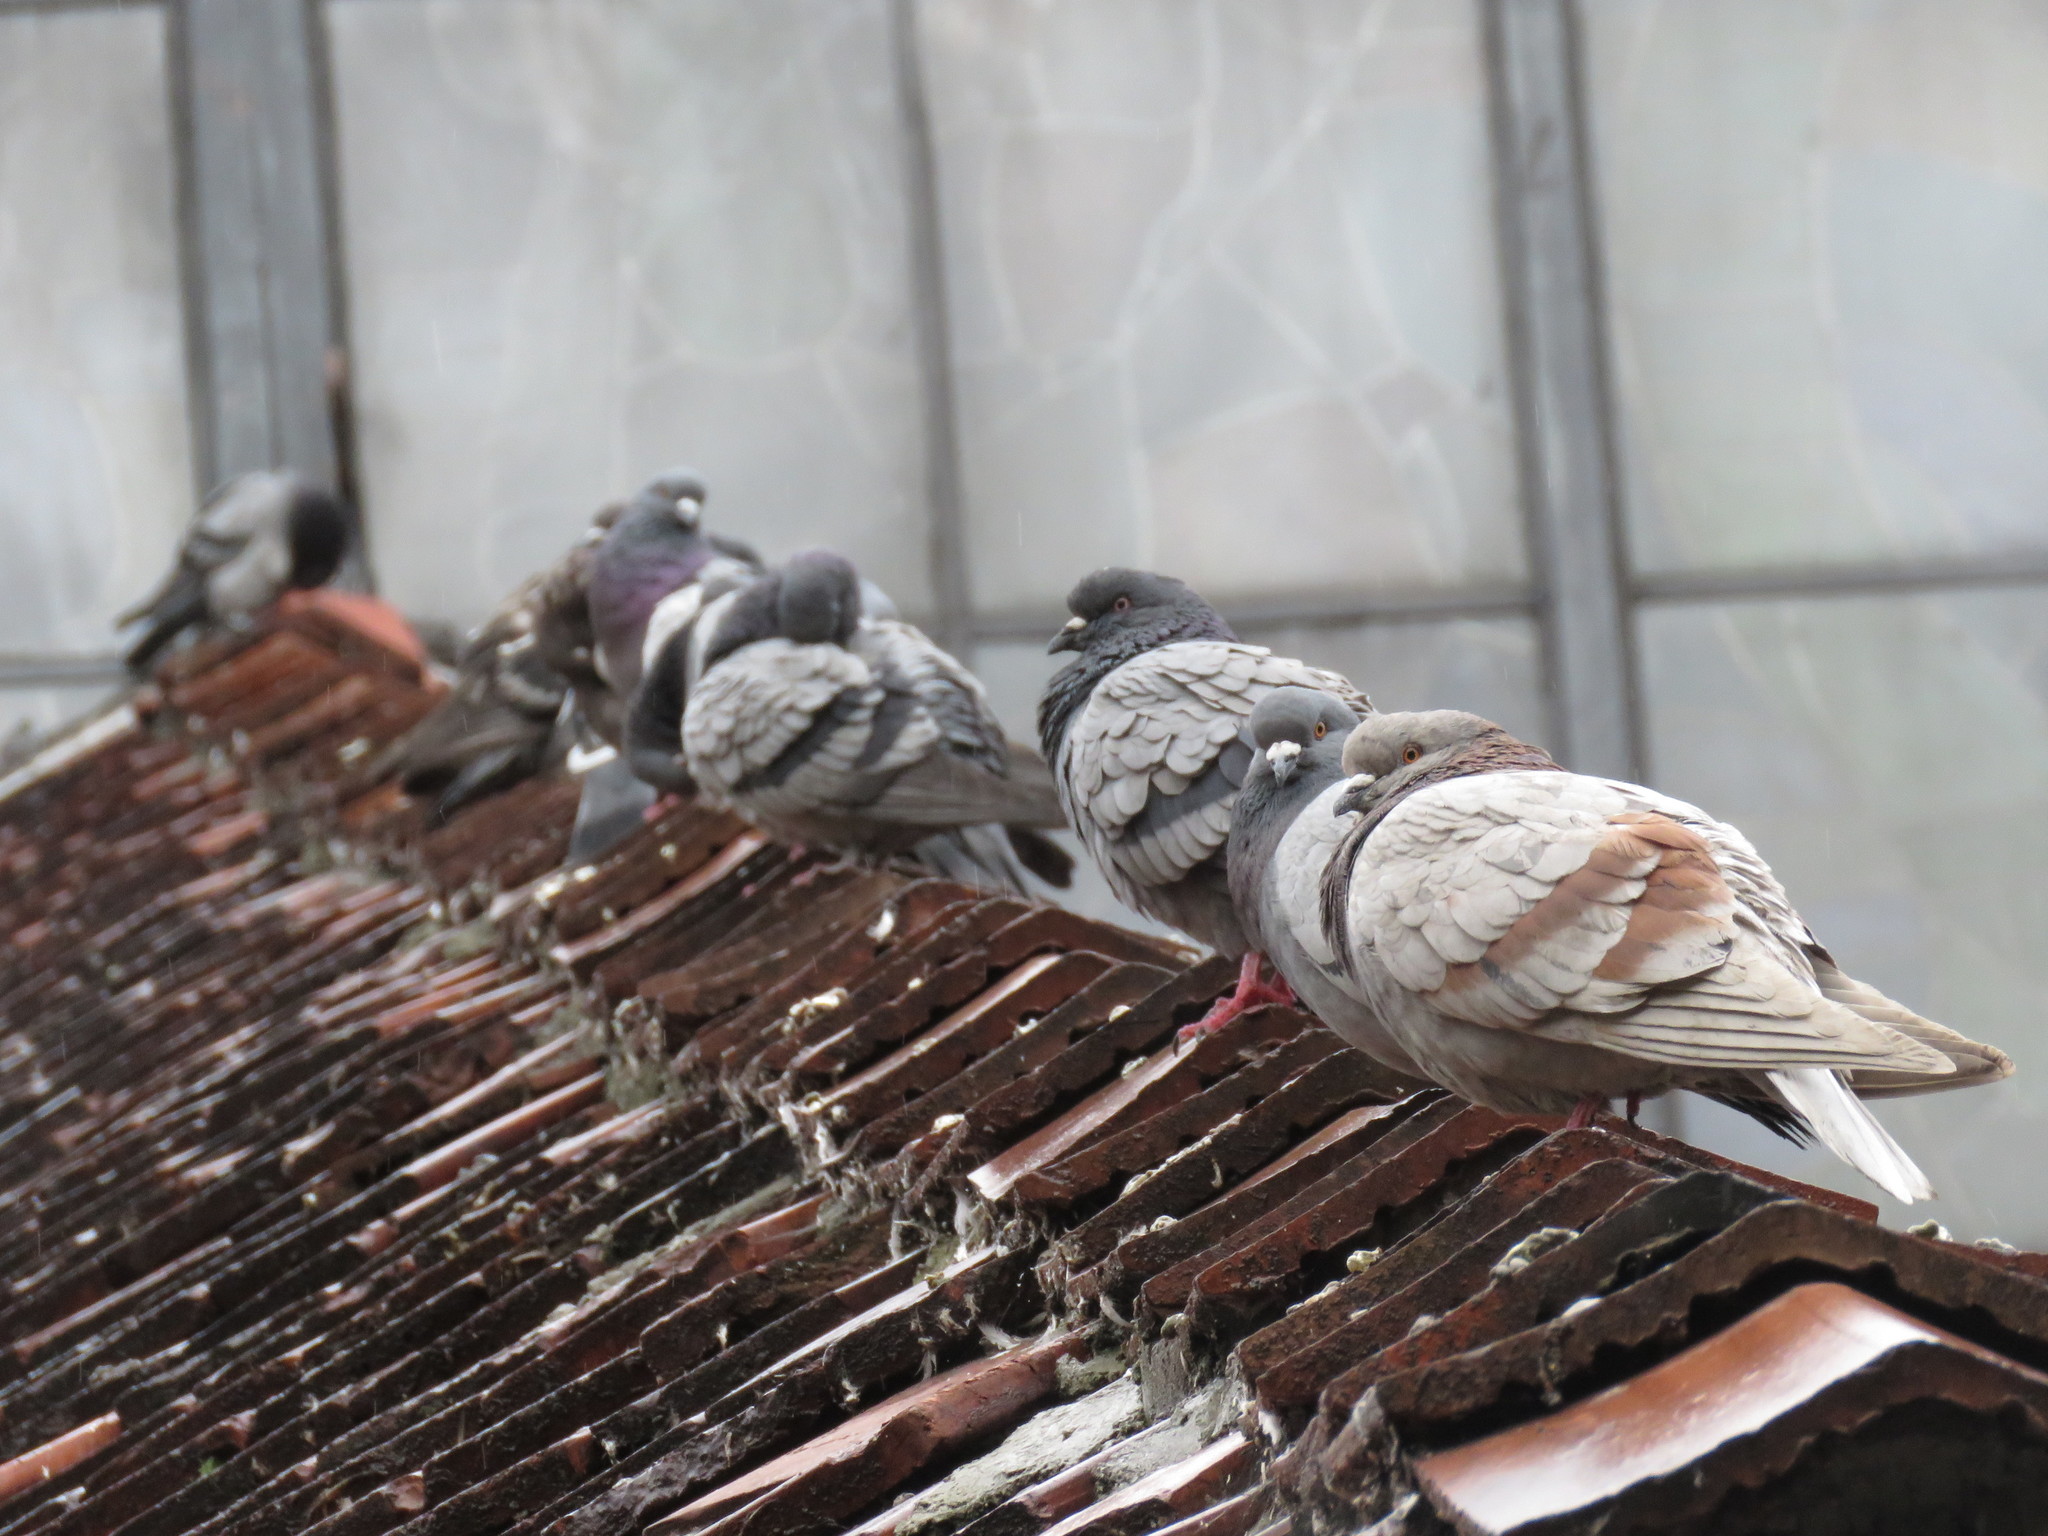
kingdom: Animalia
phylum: Chordata
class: Aves
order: Columbiformes
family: Columbidae
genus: Columba
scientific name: Columba livia
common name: Rock pigeon
